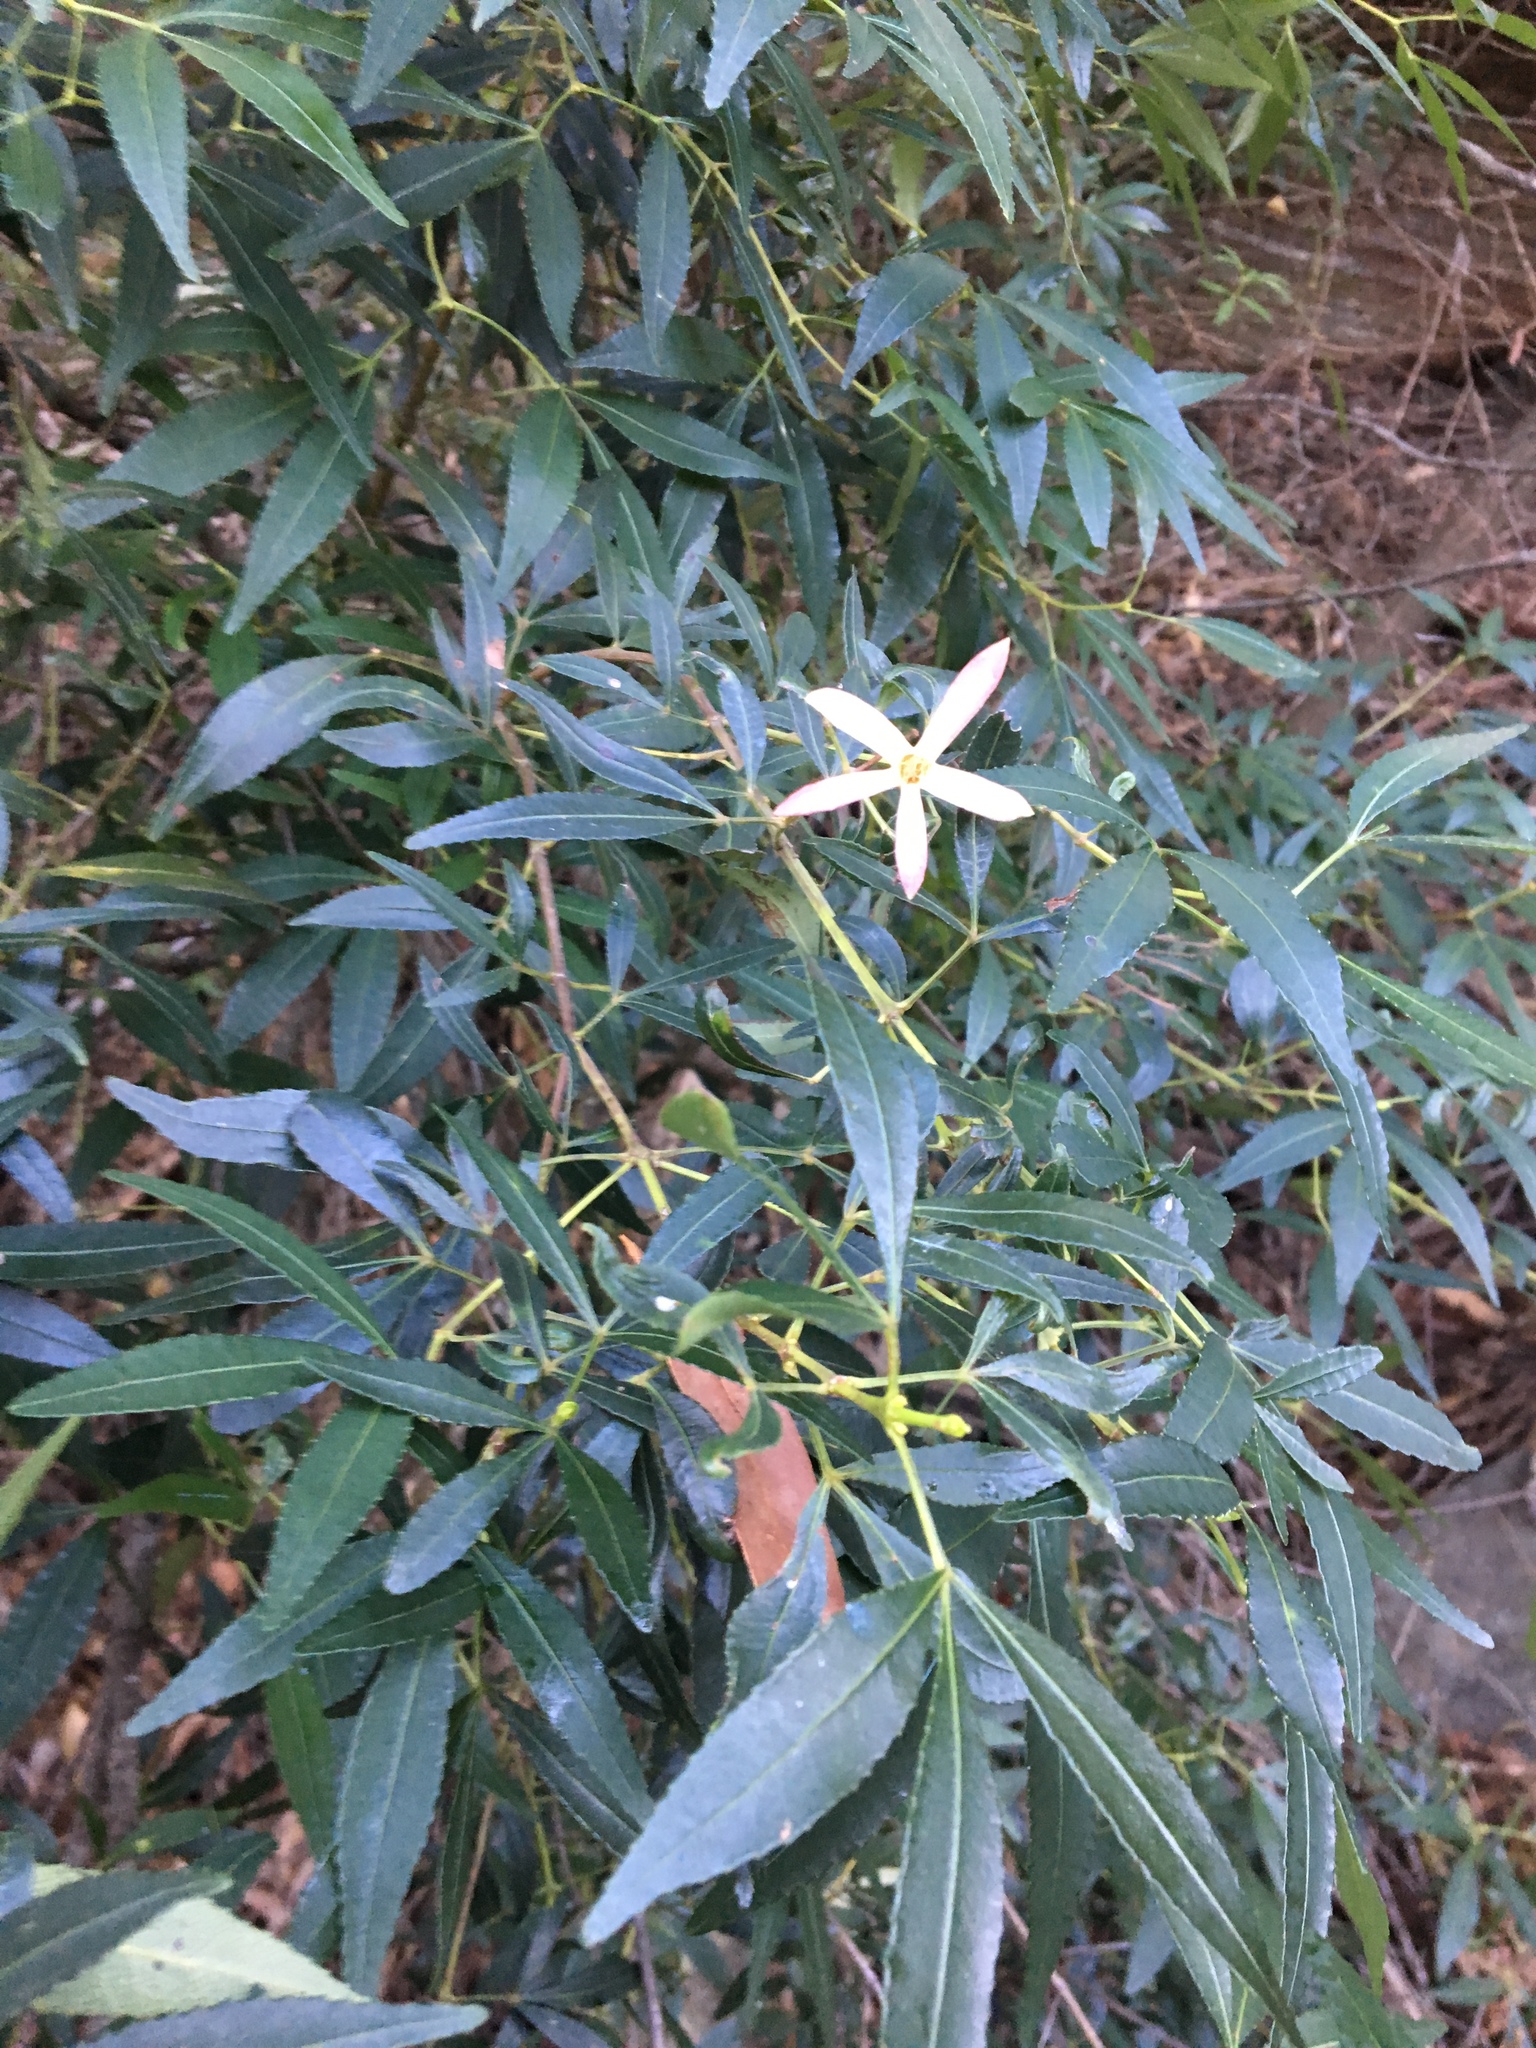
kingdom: Plantae
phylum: Tracheophyta
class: Magnoliopsida
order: Oxalidales
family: Cunoniaceae
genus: Ceratopetalum
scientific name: Ceratopetalum gummiferum
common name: Christmasbush
